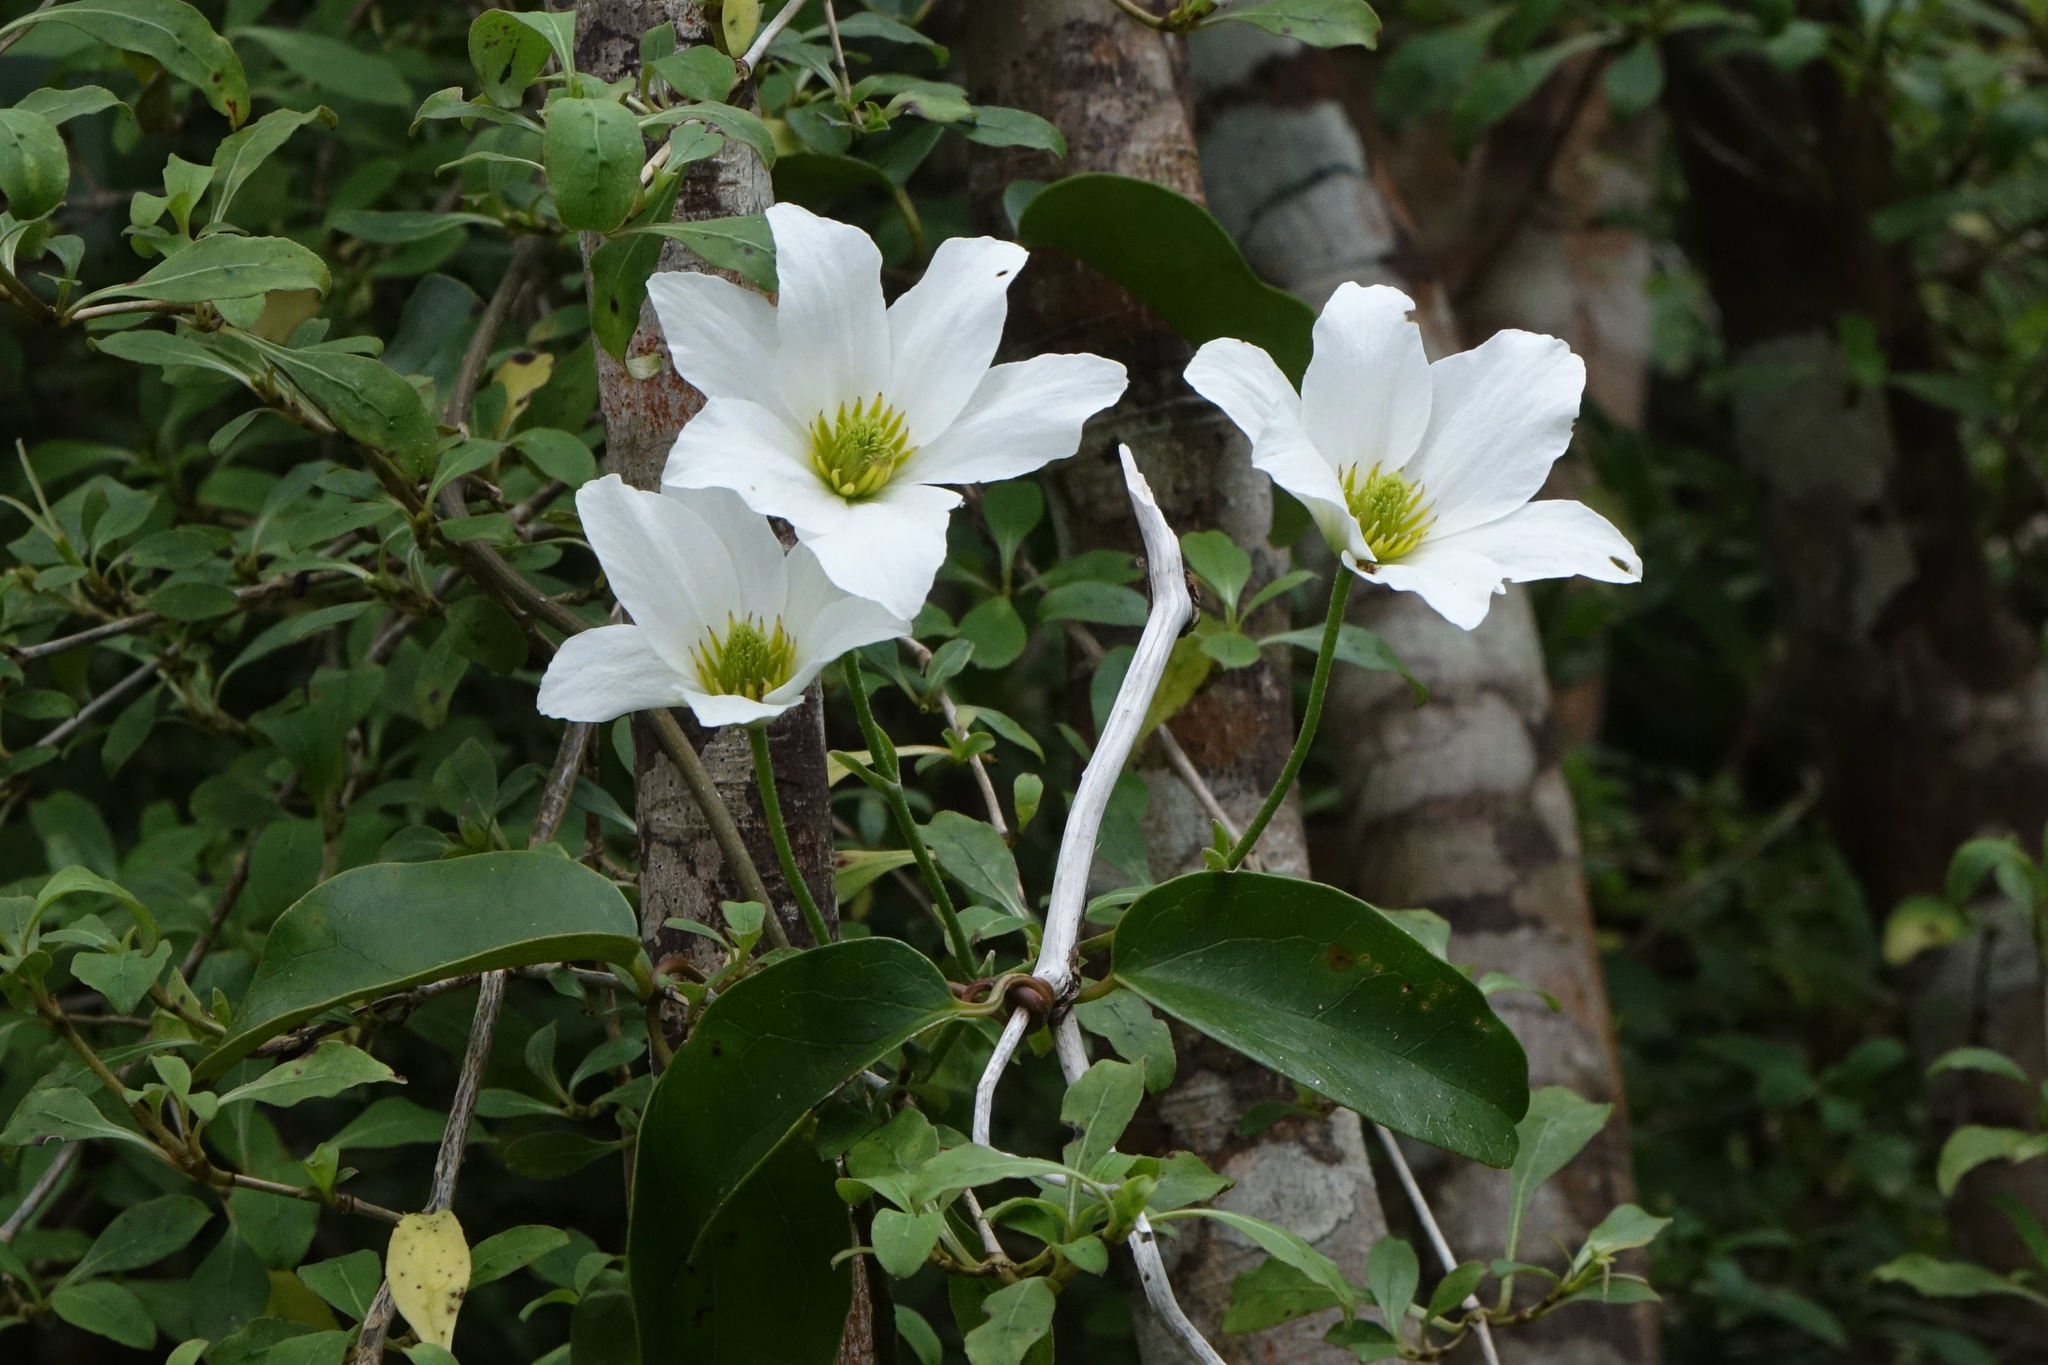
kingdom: Plantae
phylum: Tracheophyta
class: Magnoliopsida
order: Ranunculales
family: Ranunculaceae
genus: Clematis
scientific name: Clematis paniculata
